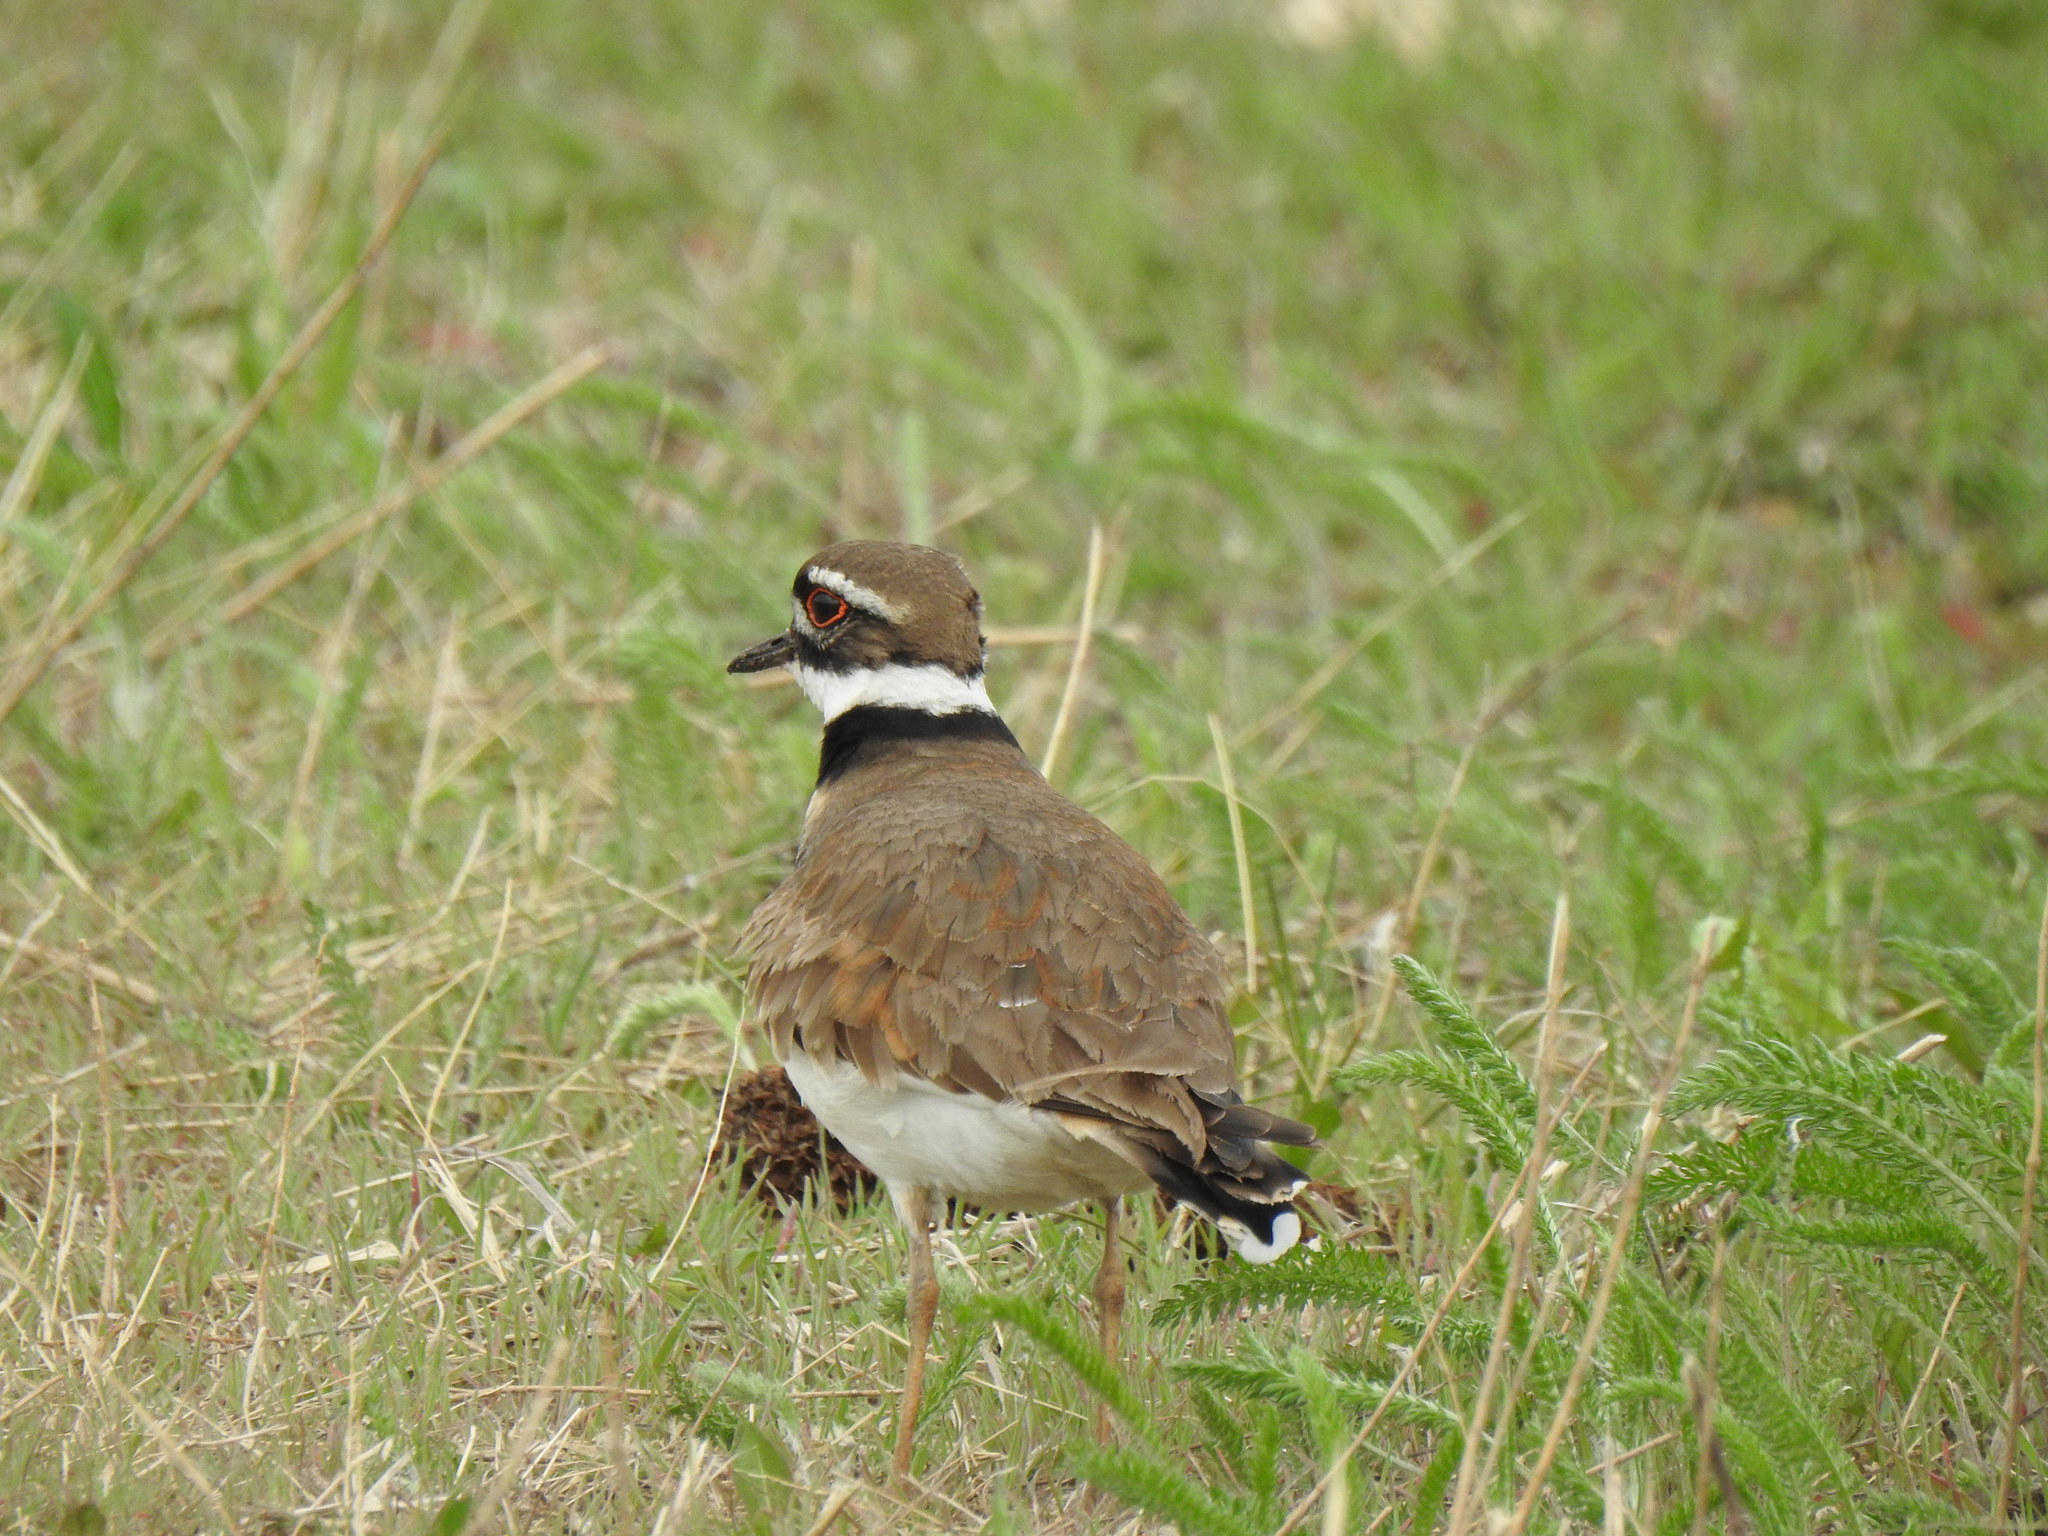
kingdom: Animalia
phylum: Chordata
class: Aves
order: Charadriiformes
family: Charadriidae
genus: Charadrius
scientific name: Charadrius vociferus
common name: Killdeer
